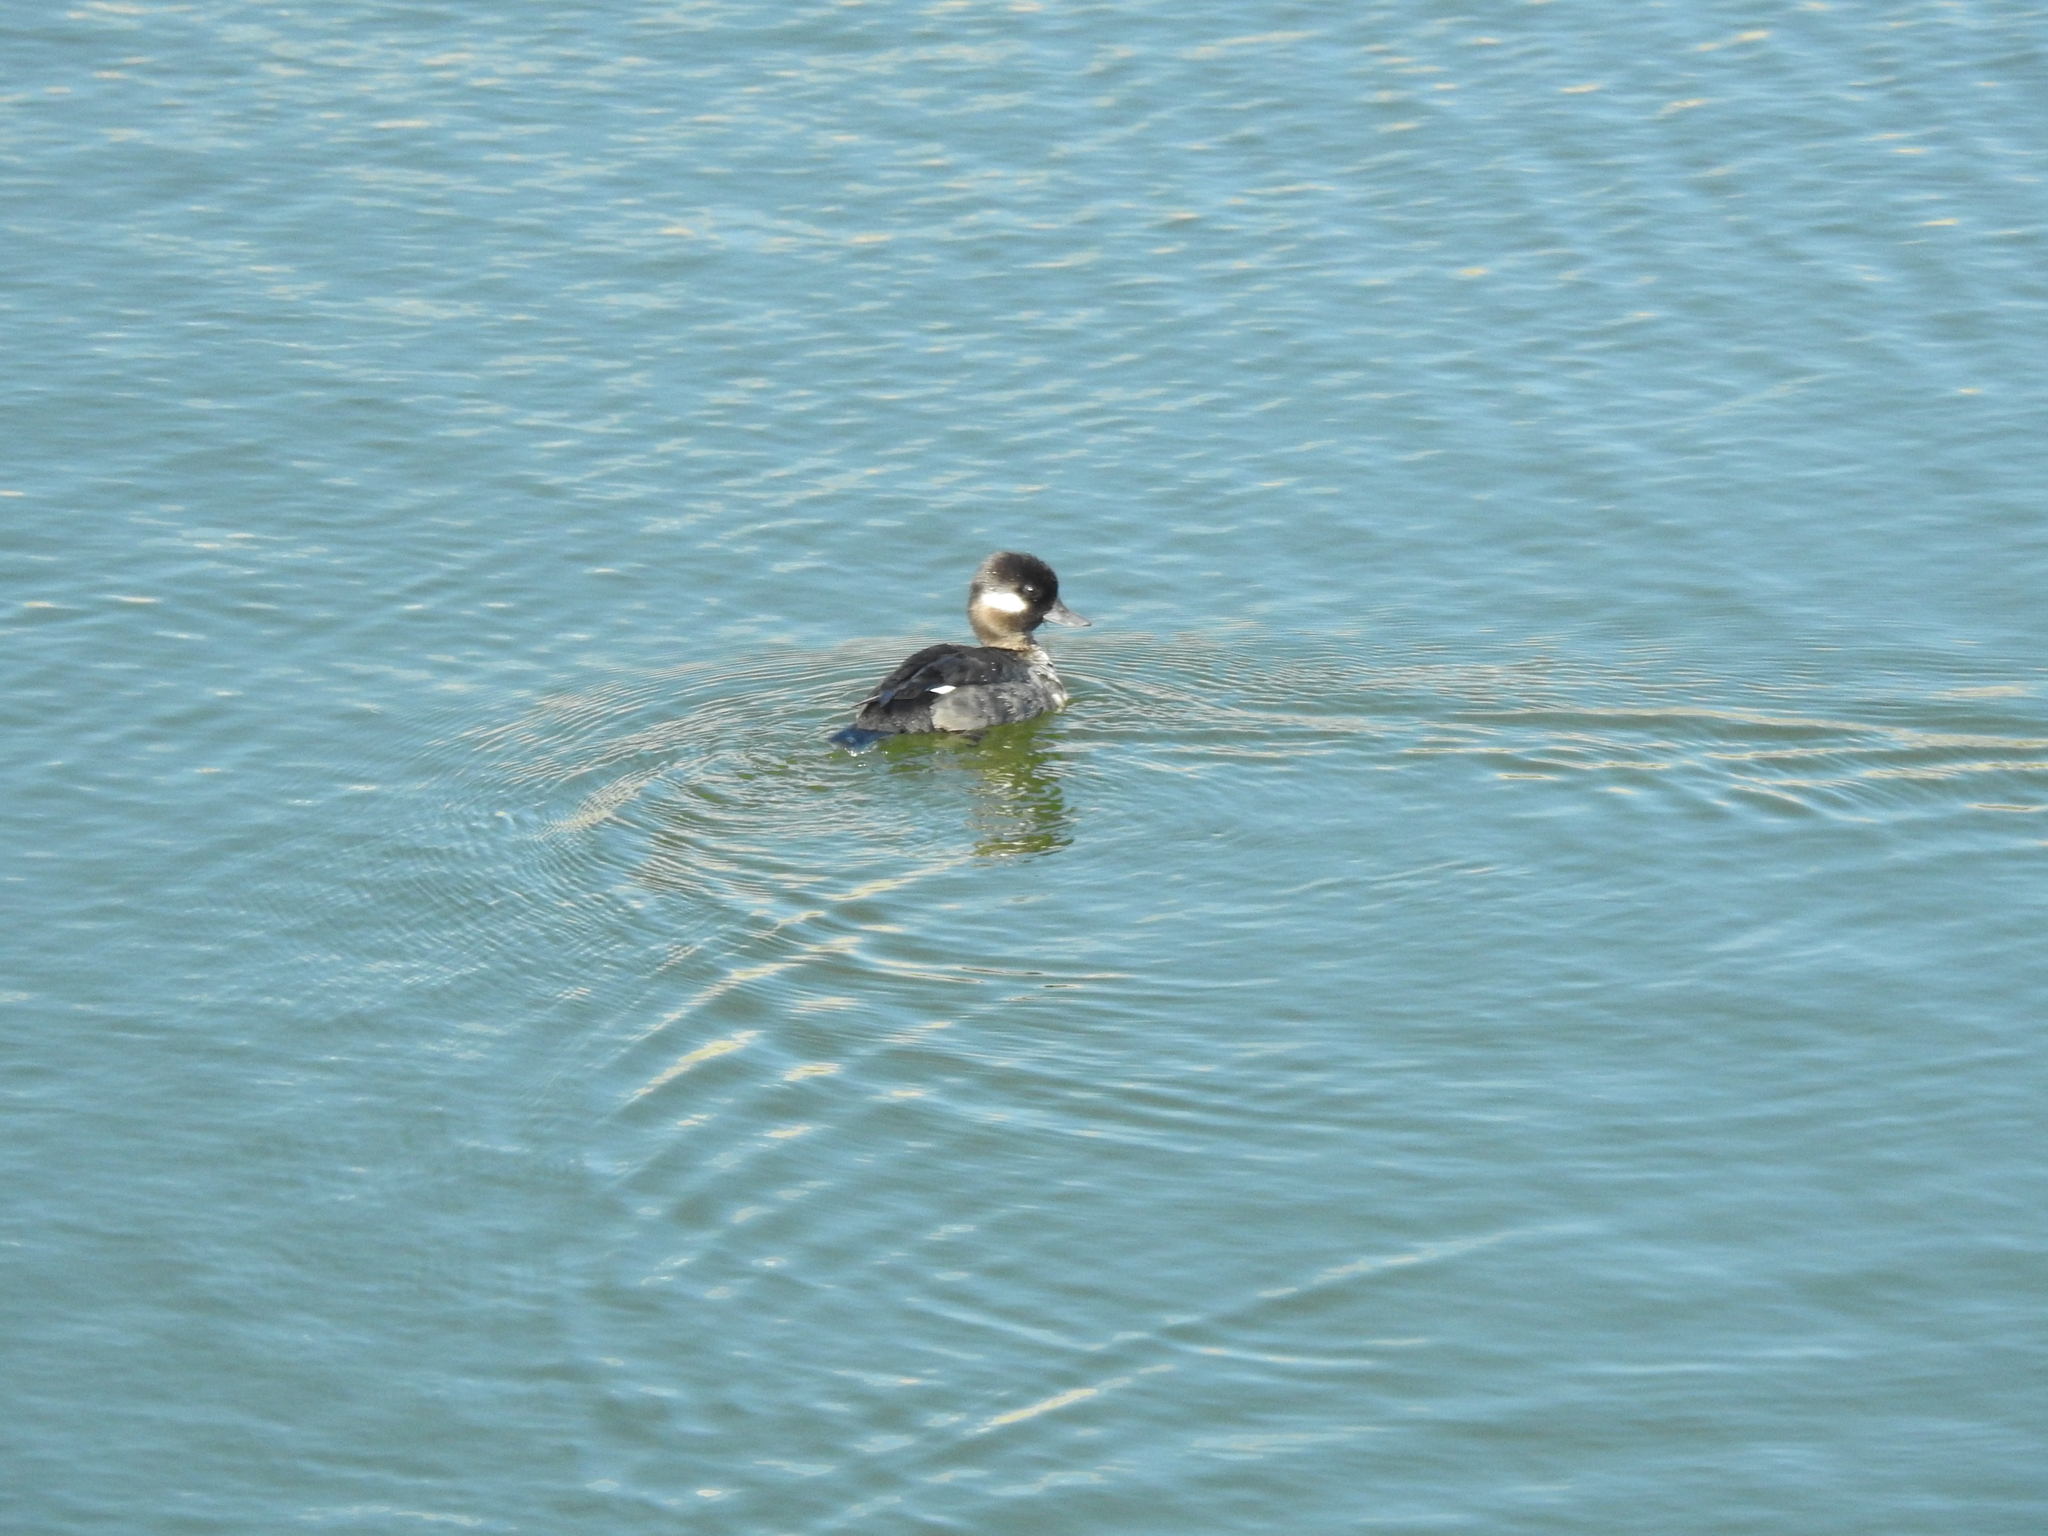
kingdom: Animalia
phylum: Chordata
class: Aves
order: Anseriformes
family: Anatidae
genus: Bucephala
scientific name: Bucephala albeola
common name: Bufflehead
